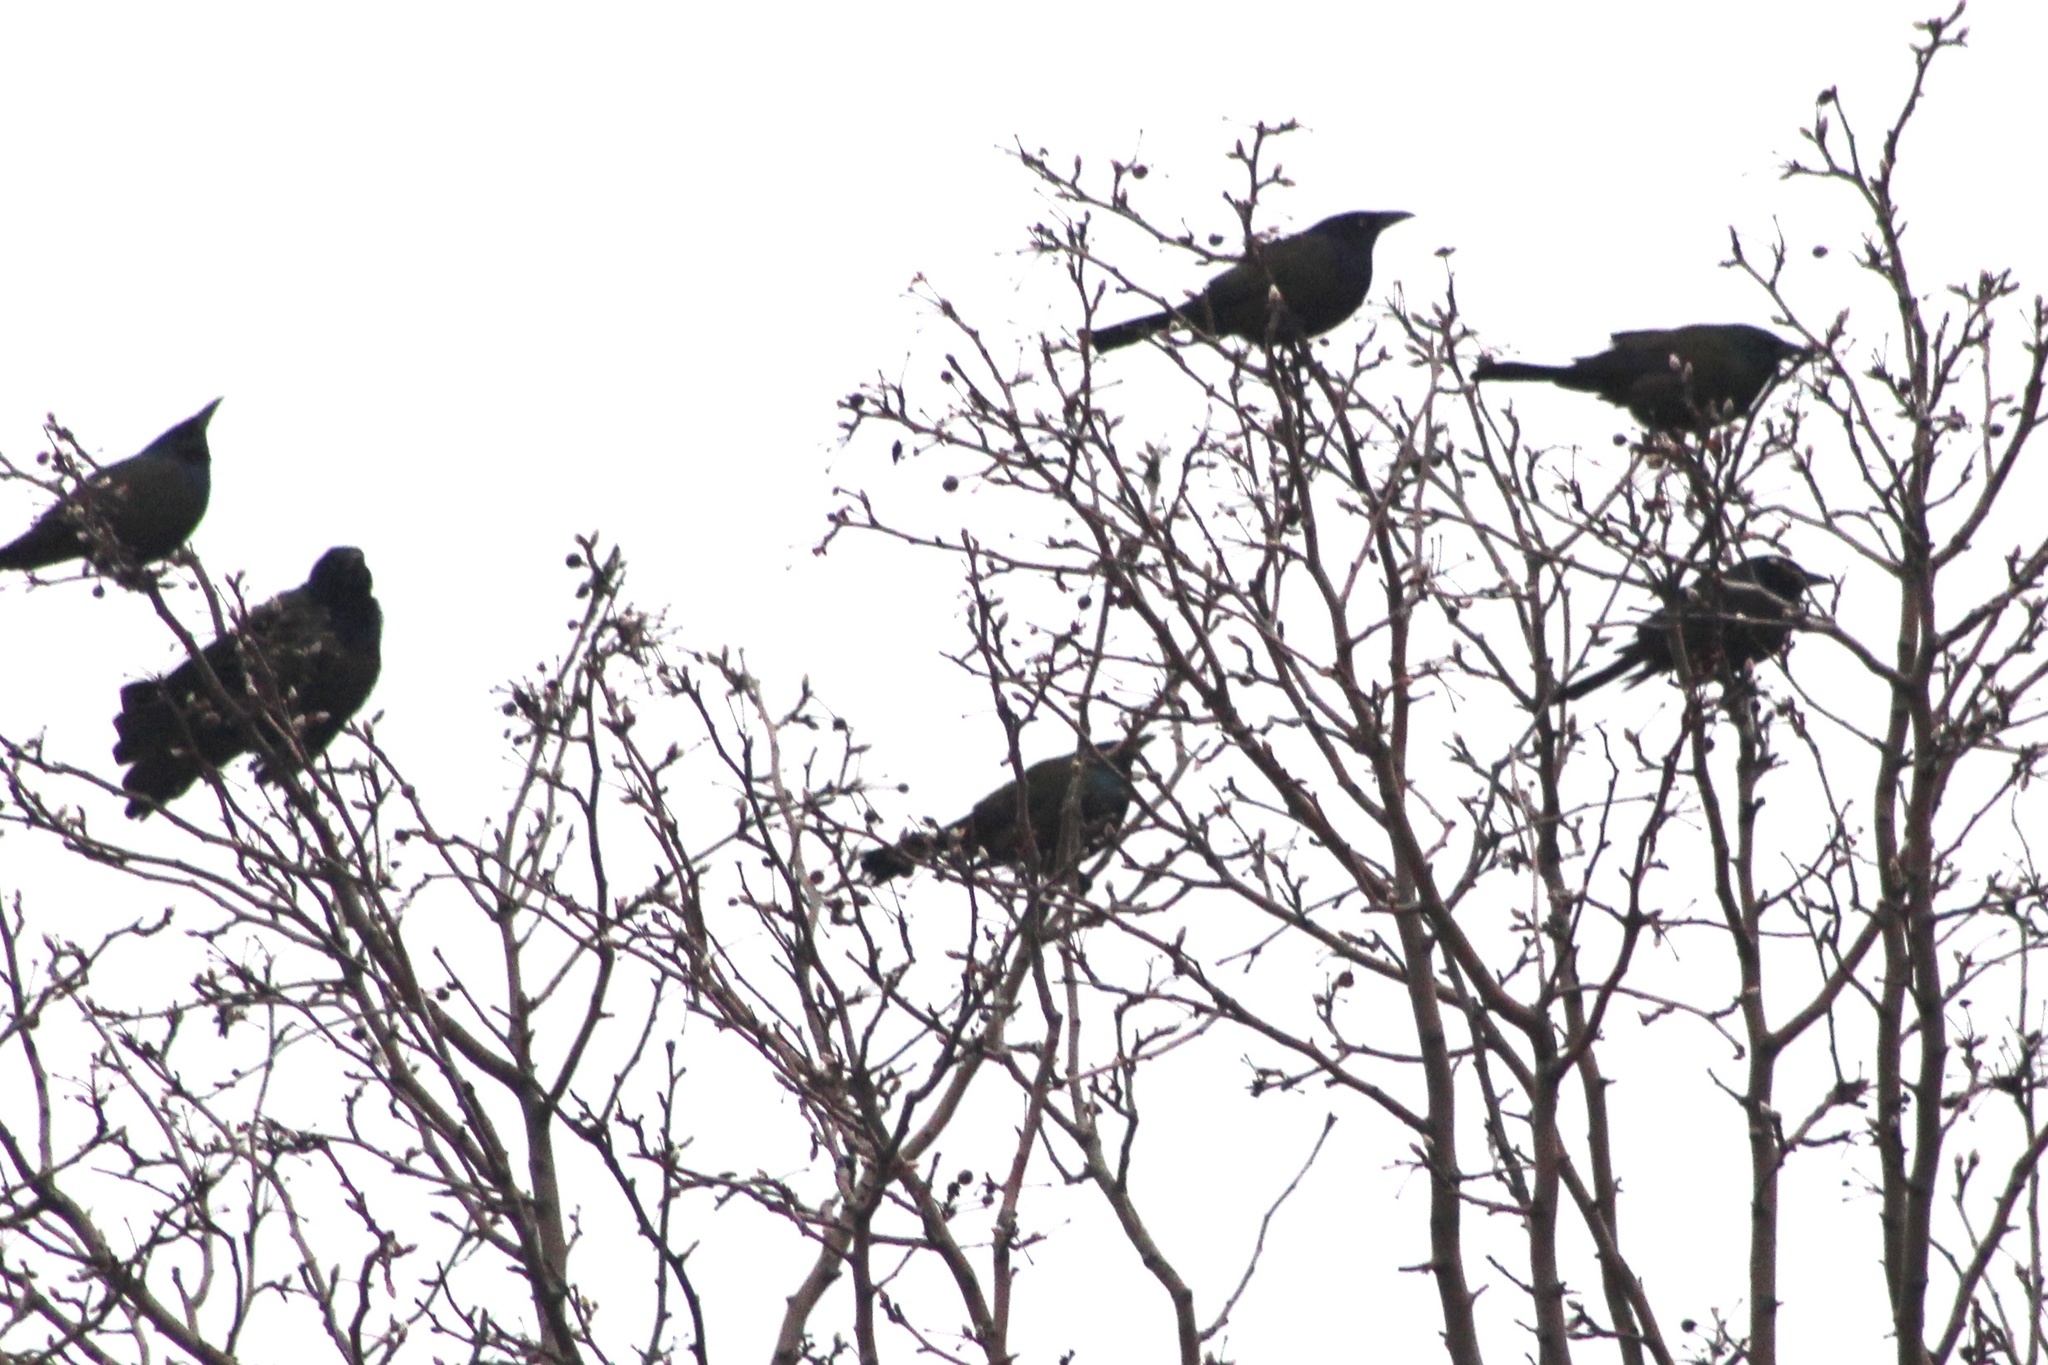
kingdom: Animalia
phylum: Chordata
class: Aves
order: Passeriformes
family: Icteridae
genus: Quiscalus
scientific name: Quiscalus quiscula
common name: Common grackle
